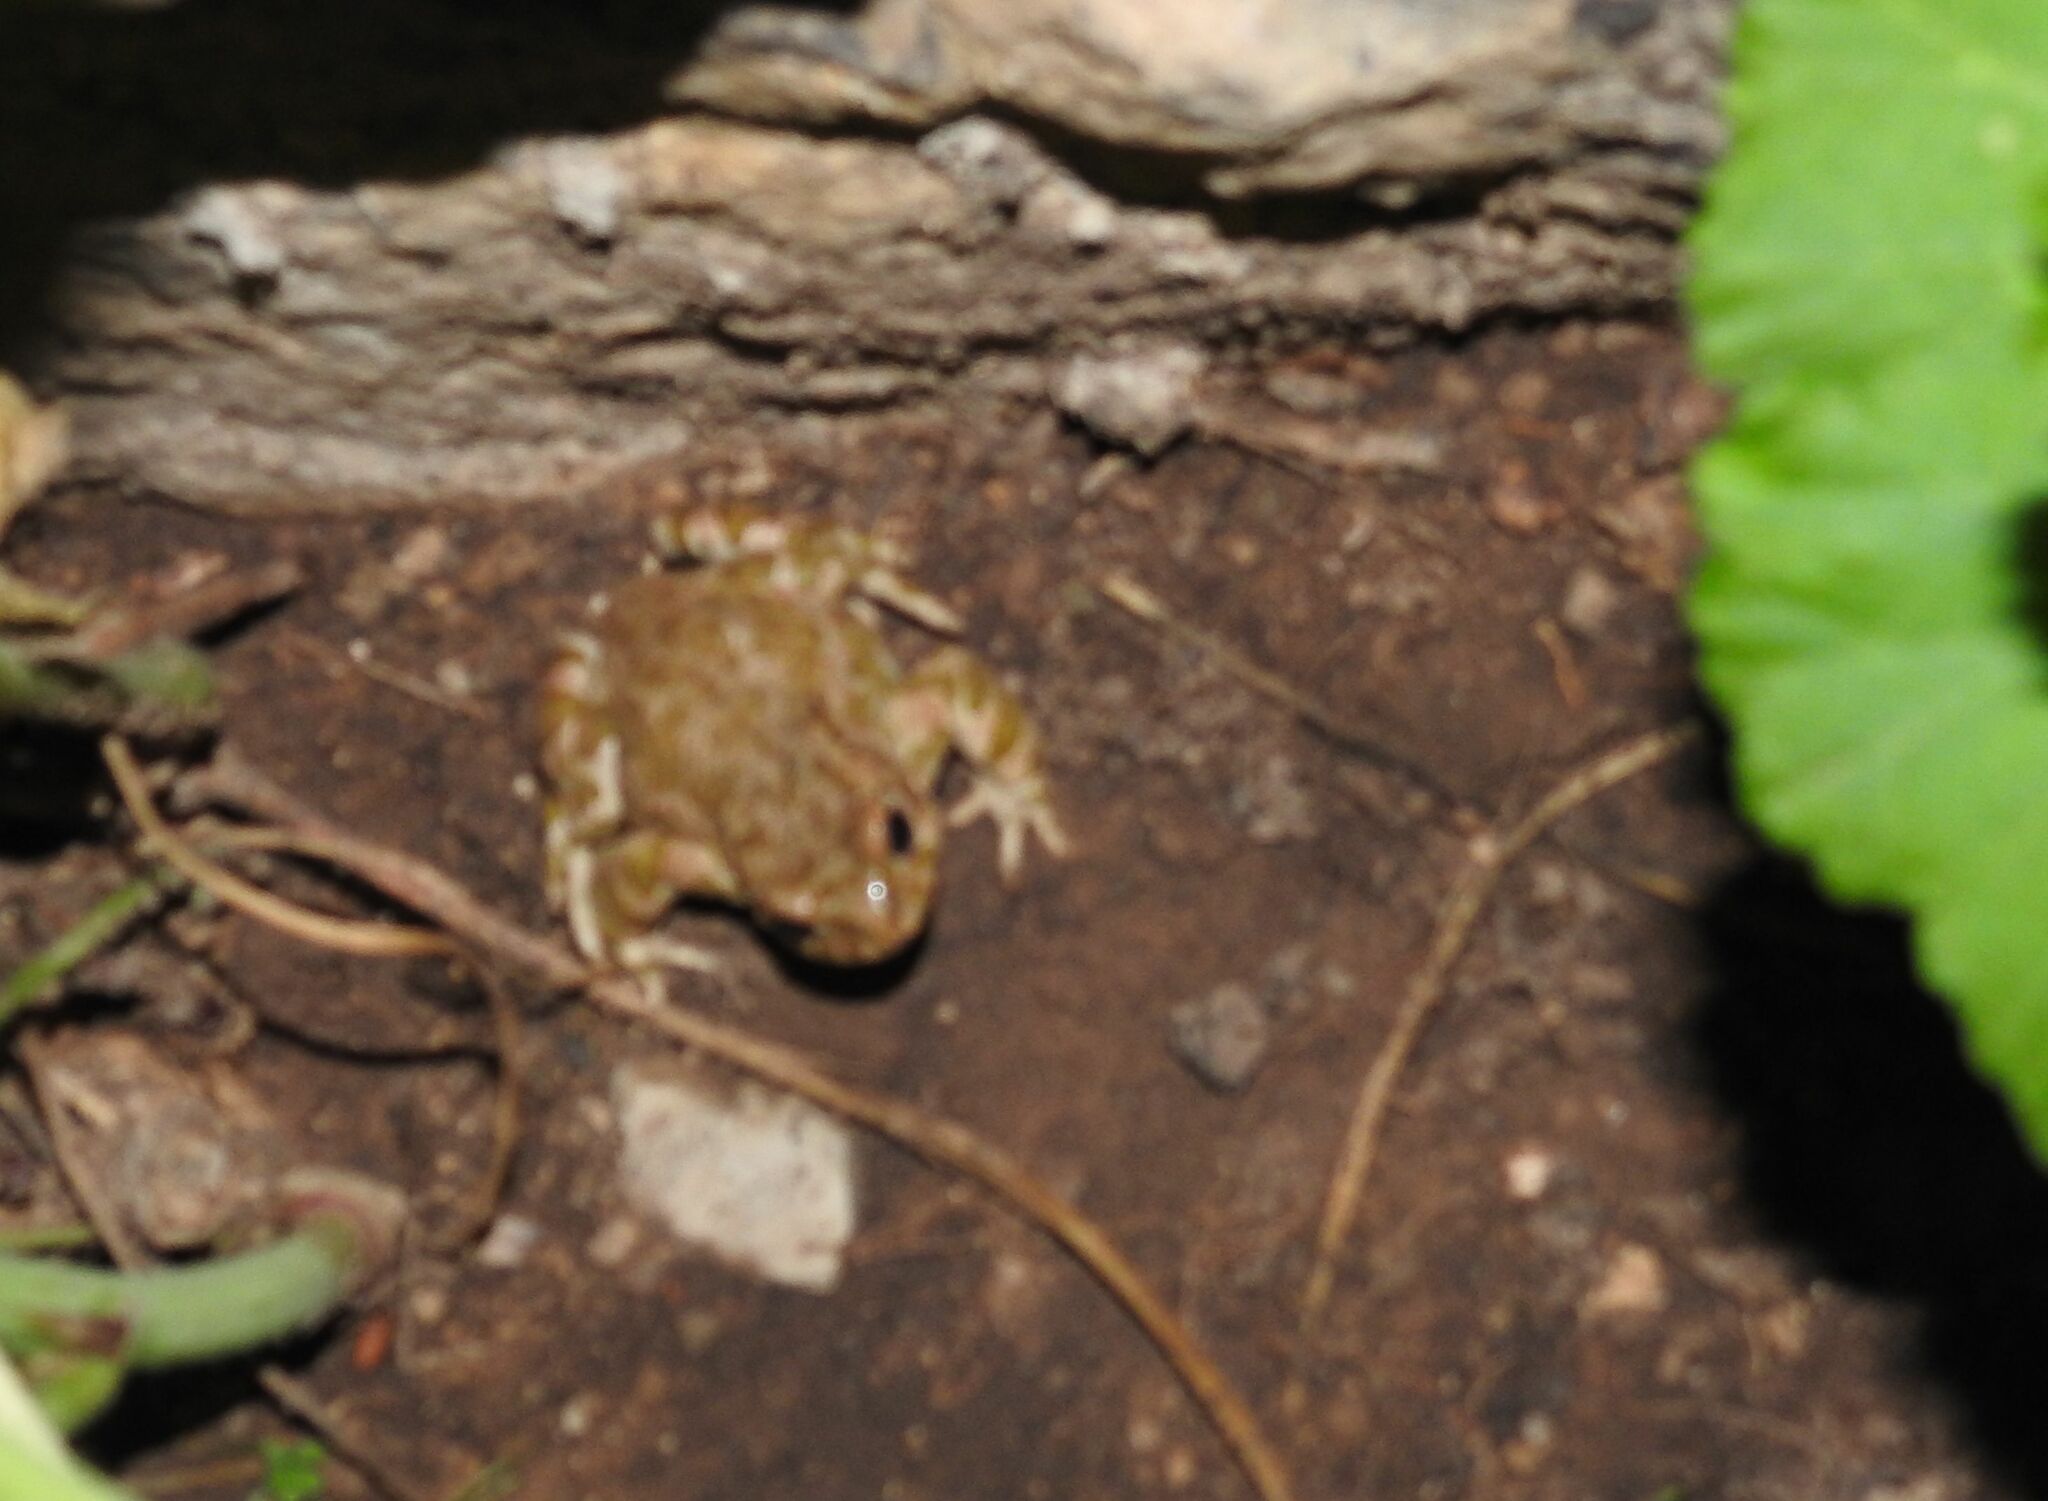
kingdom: Animalia
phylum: Chordata
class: Amphibia
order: Anura
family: Bufonidae
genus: Bufotes
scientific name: Bufotes viridis
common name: European green toad
